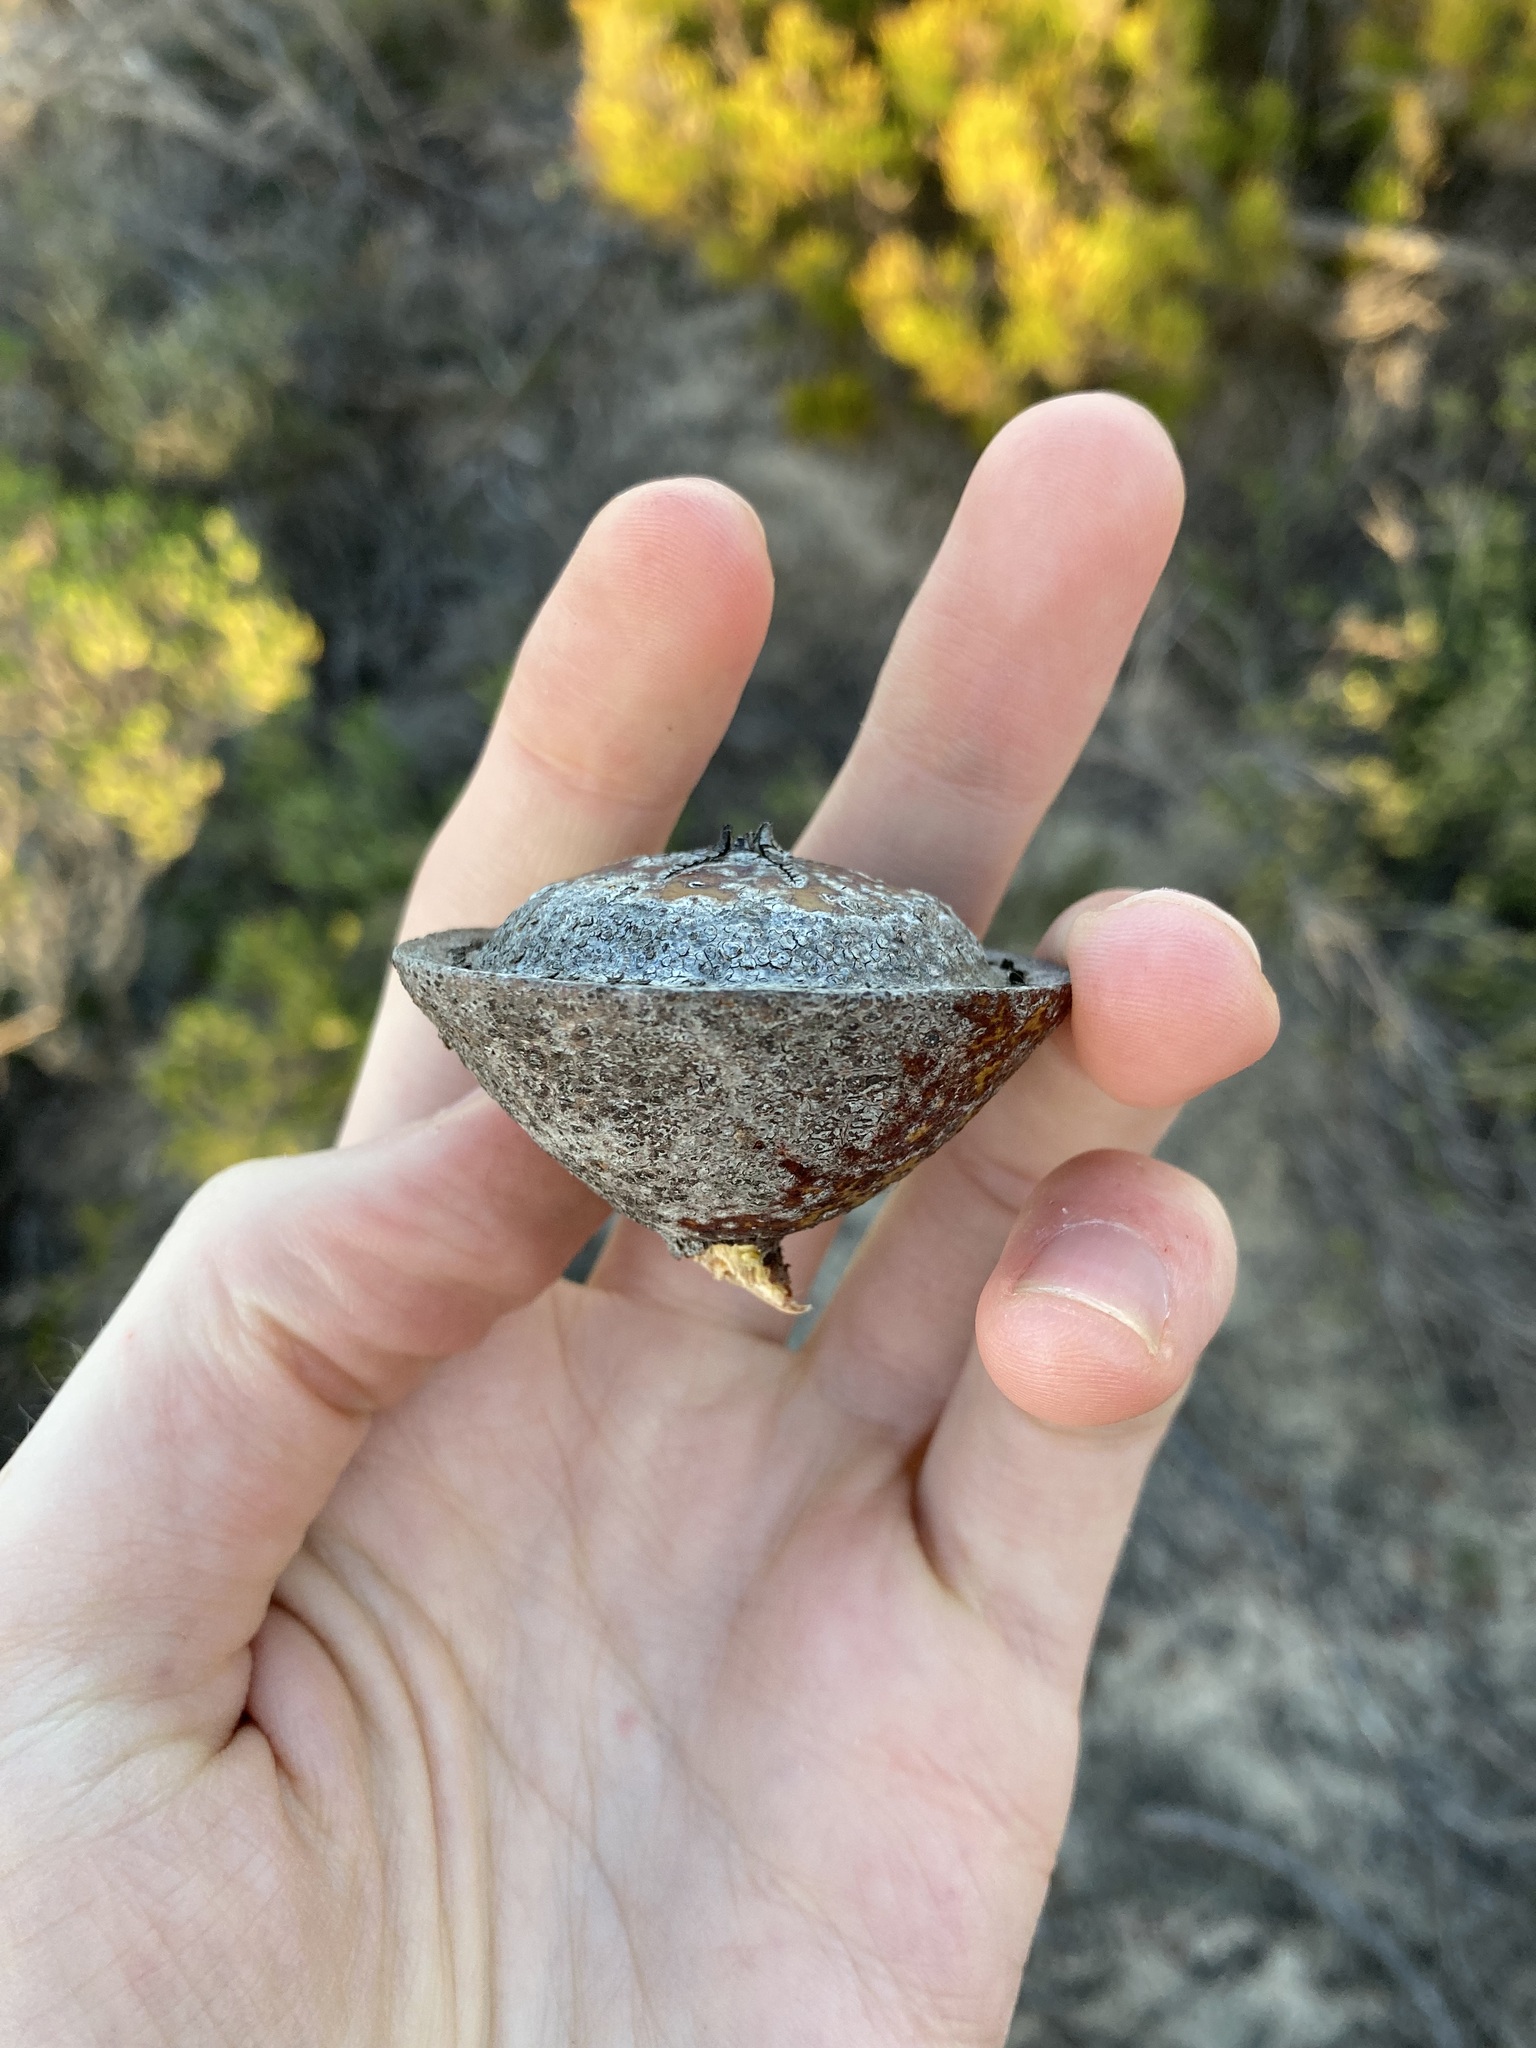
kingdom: Plantae
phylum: Tracheophyta
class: Magnoliopsida
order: Myrtales
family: Myrtaceae
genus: Eucalyptus
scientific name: Eucalyptus macrocarpa
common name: Mottlecah
